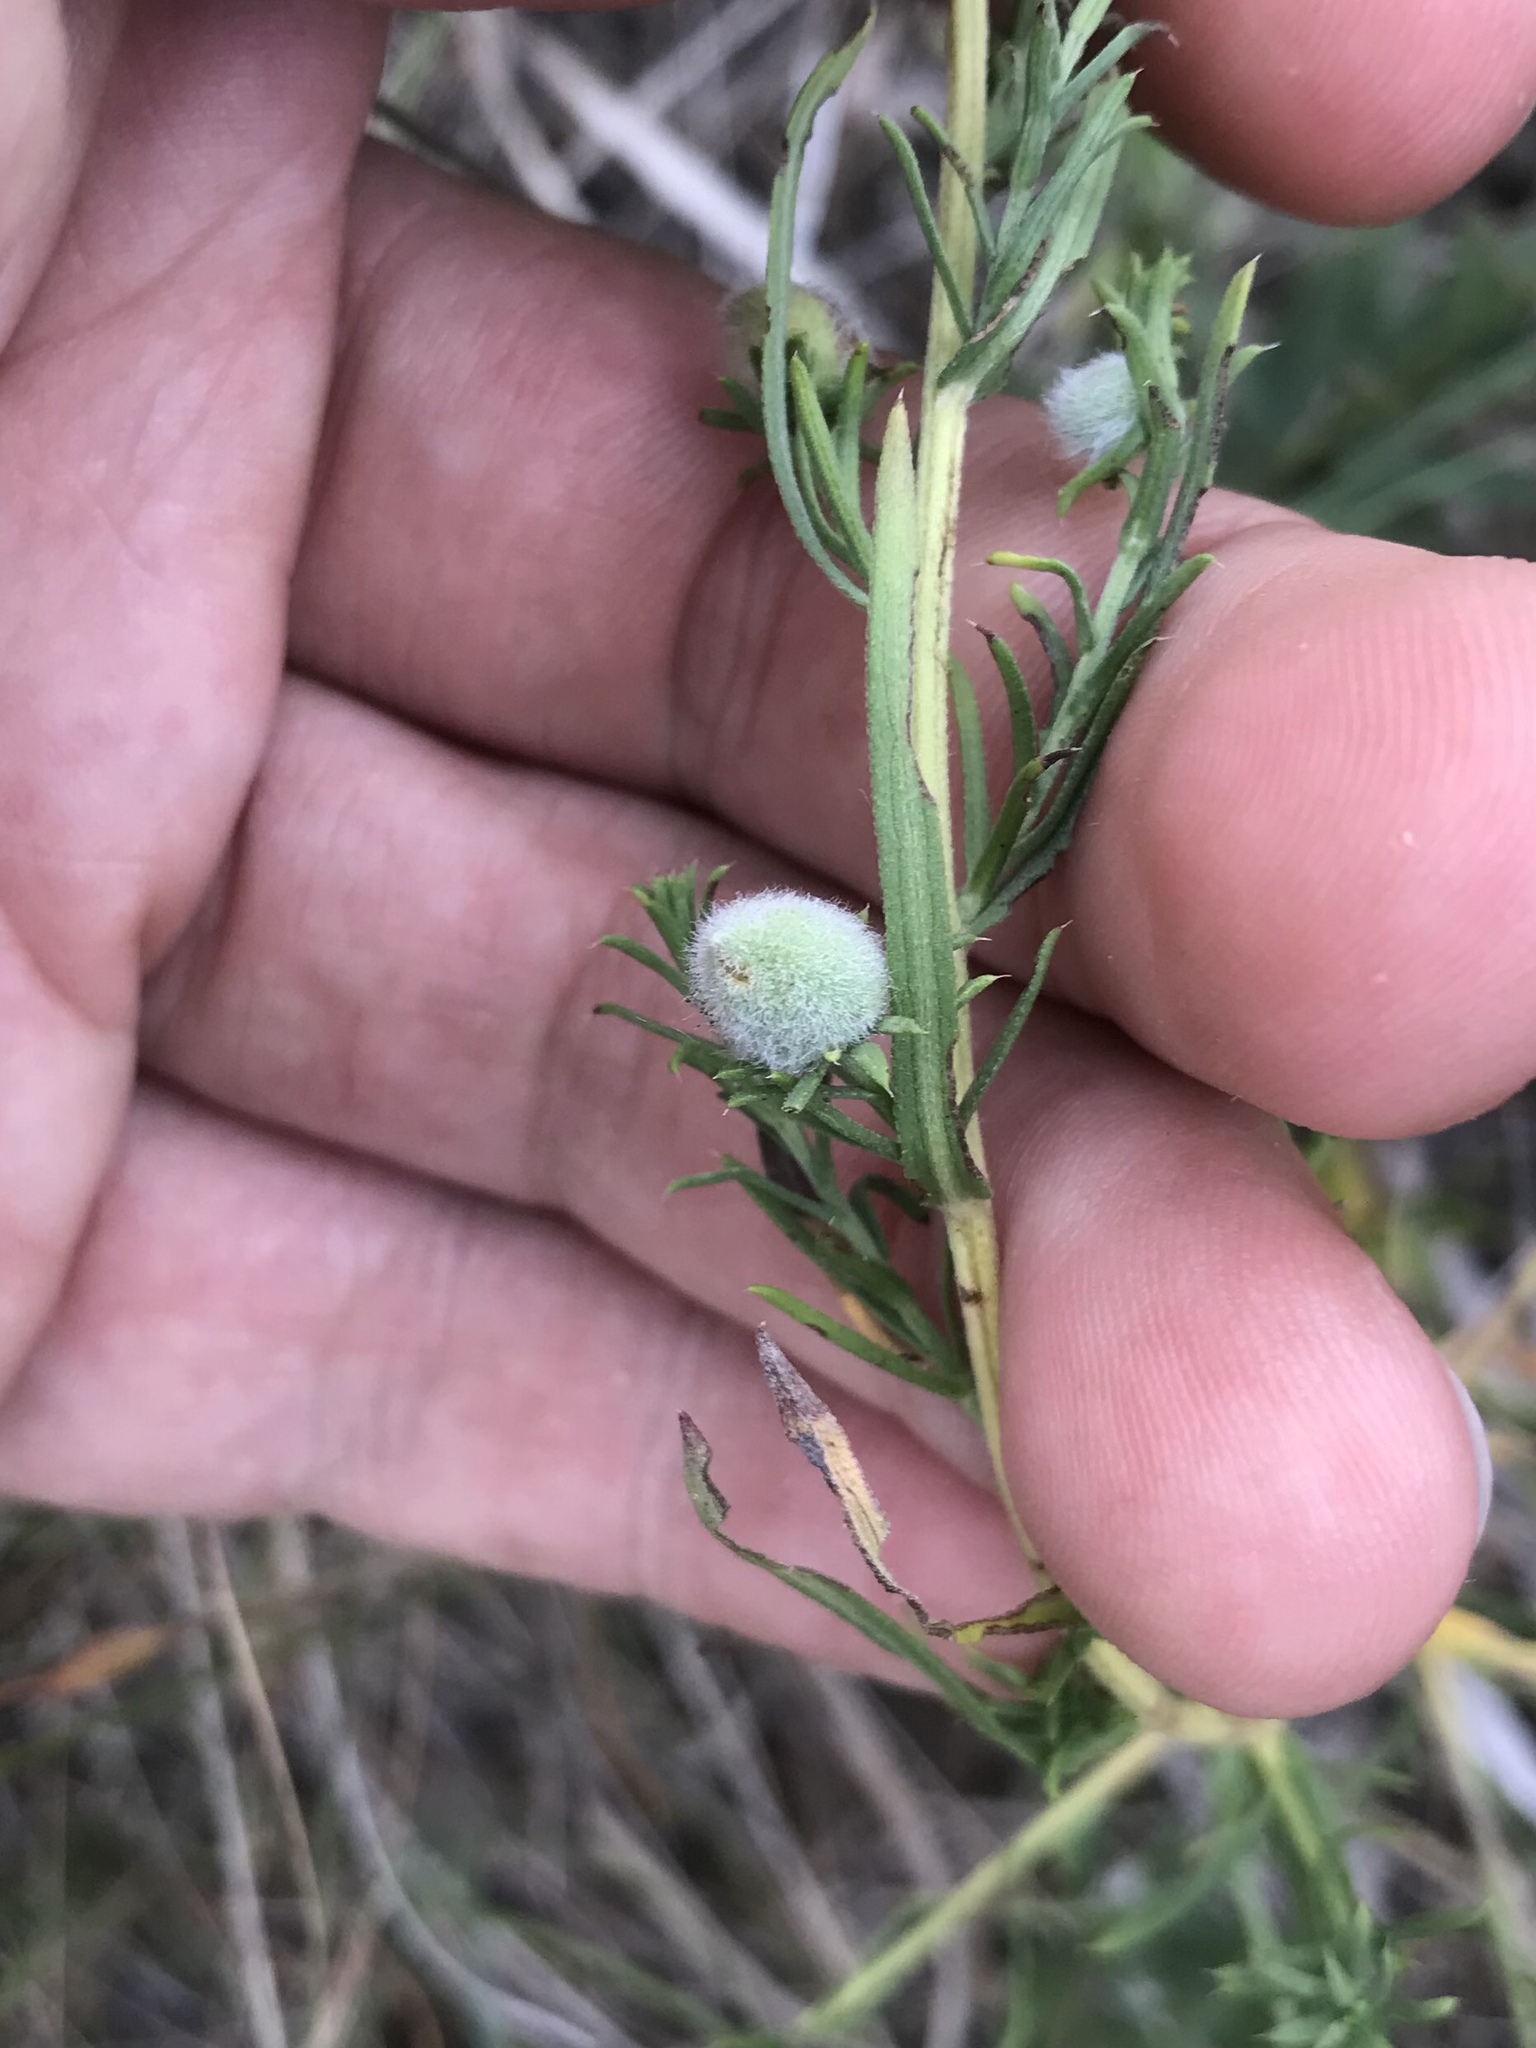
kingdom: Animalia
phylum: Arthropoda
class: Insecta
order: Diptera
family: Cecidomyiidae
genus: Rhopalomyia
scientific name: Rhopalomyia gemmaria
